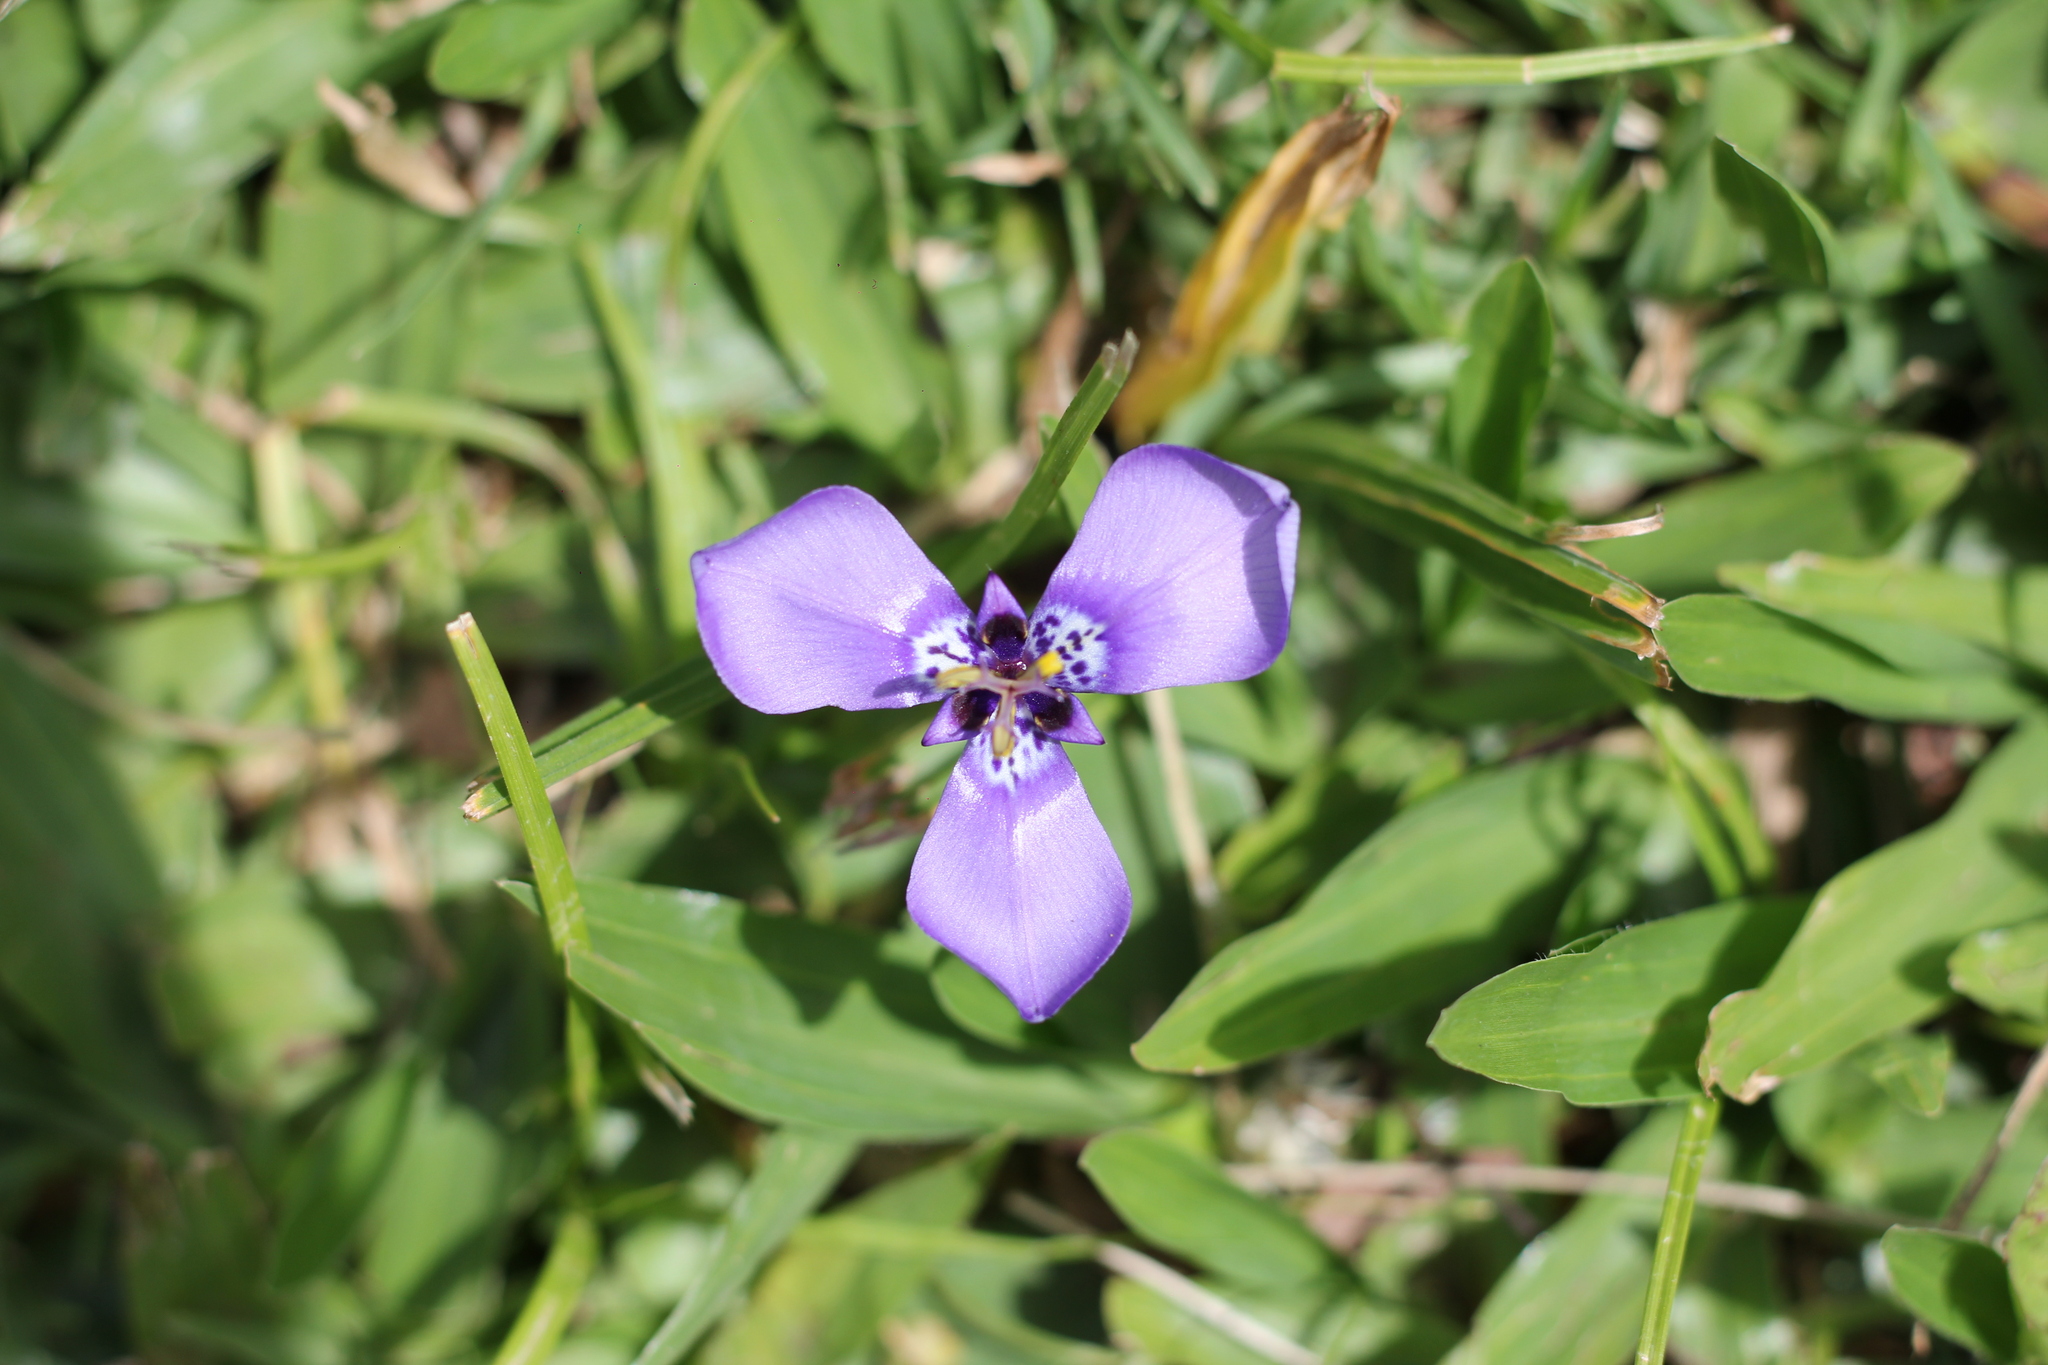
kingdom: Plantae
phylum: Tracheophyta
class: Liliopsida
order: Asparagales
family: Iridaceae
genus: Herbertia
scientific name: Herbertia lahue
